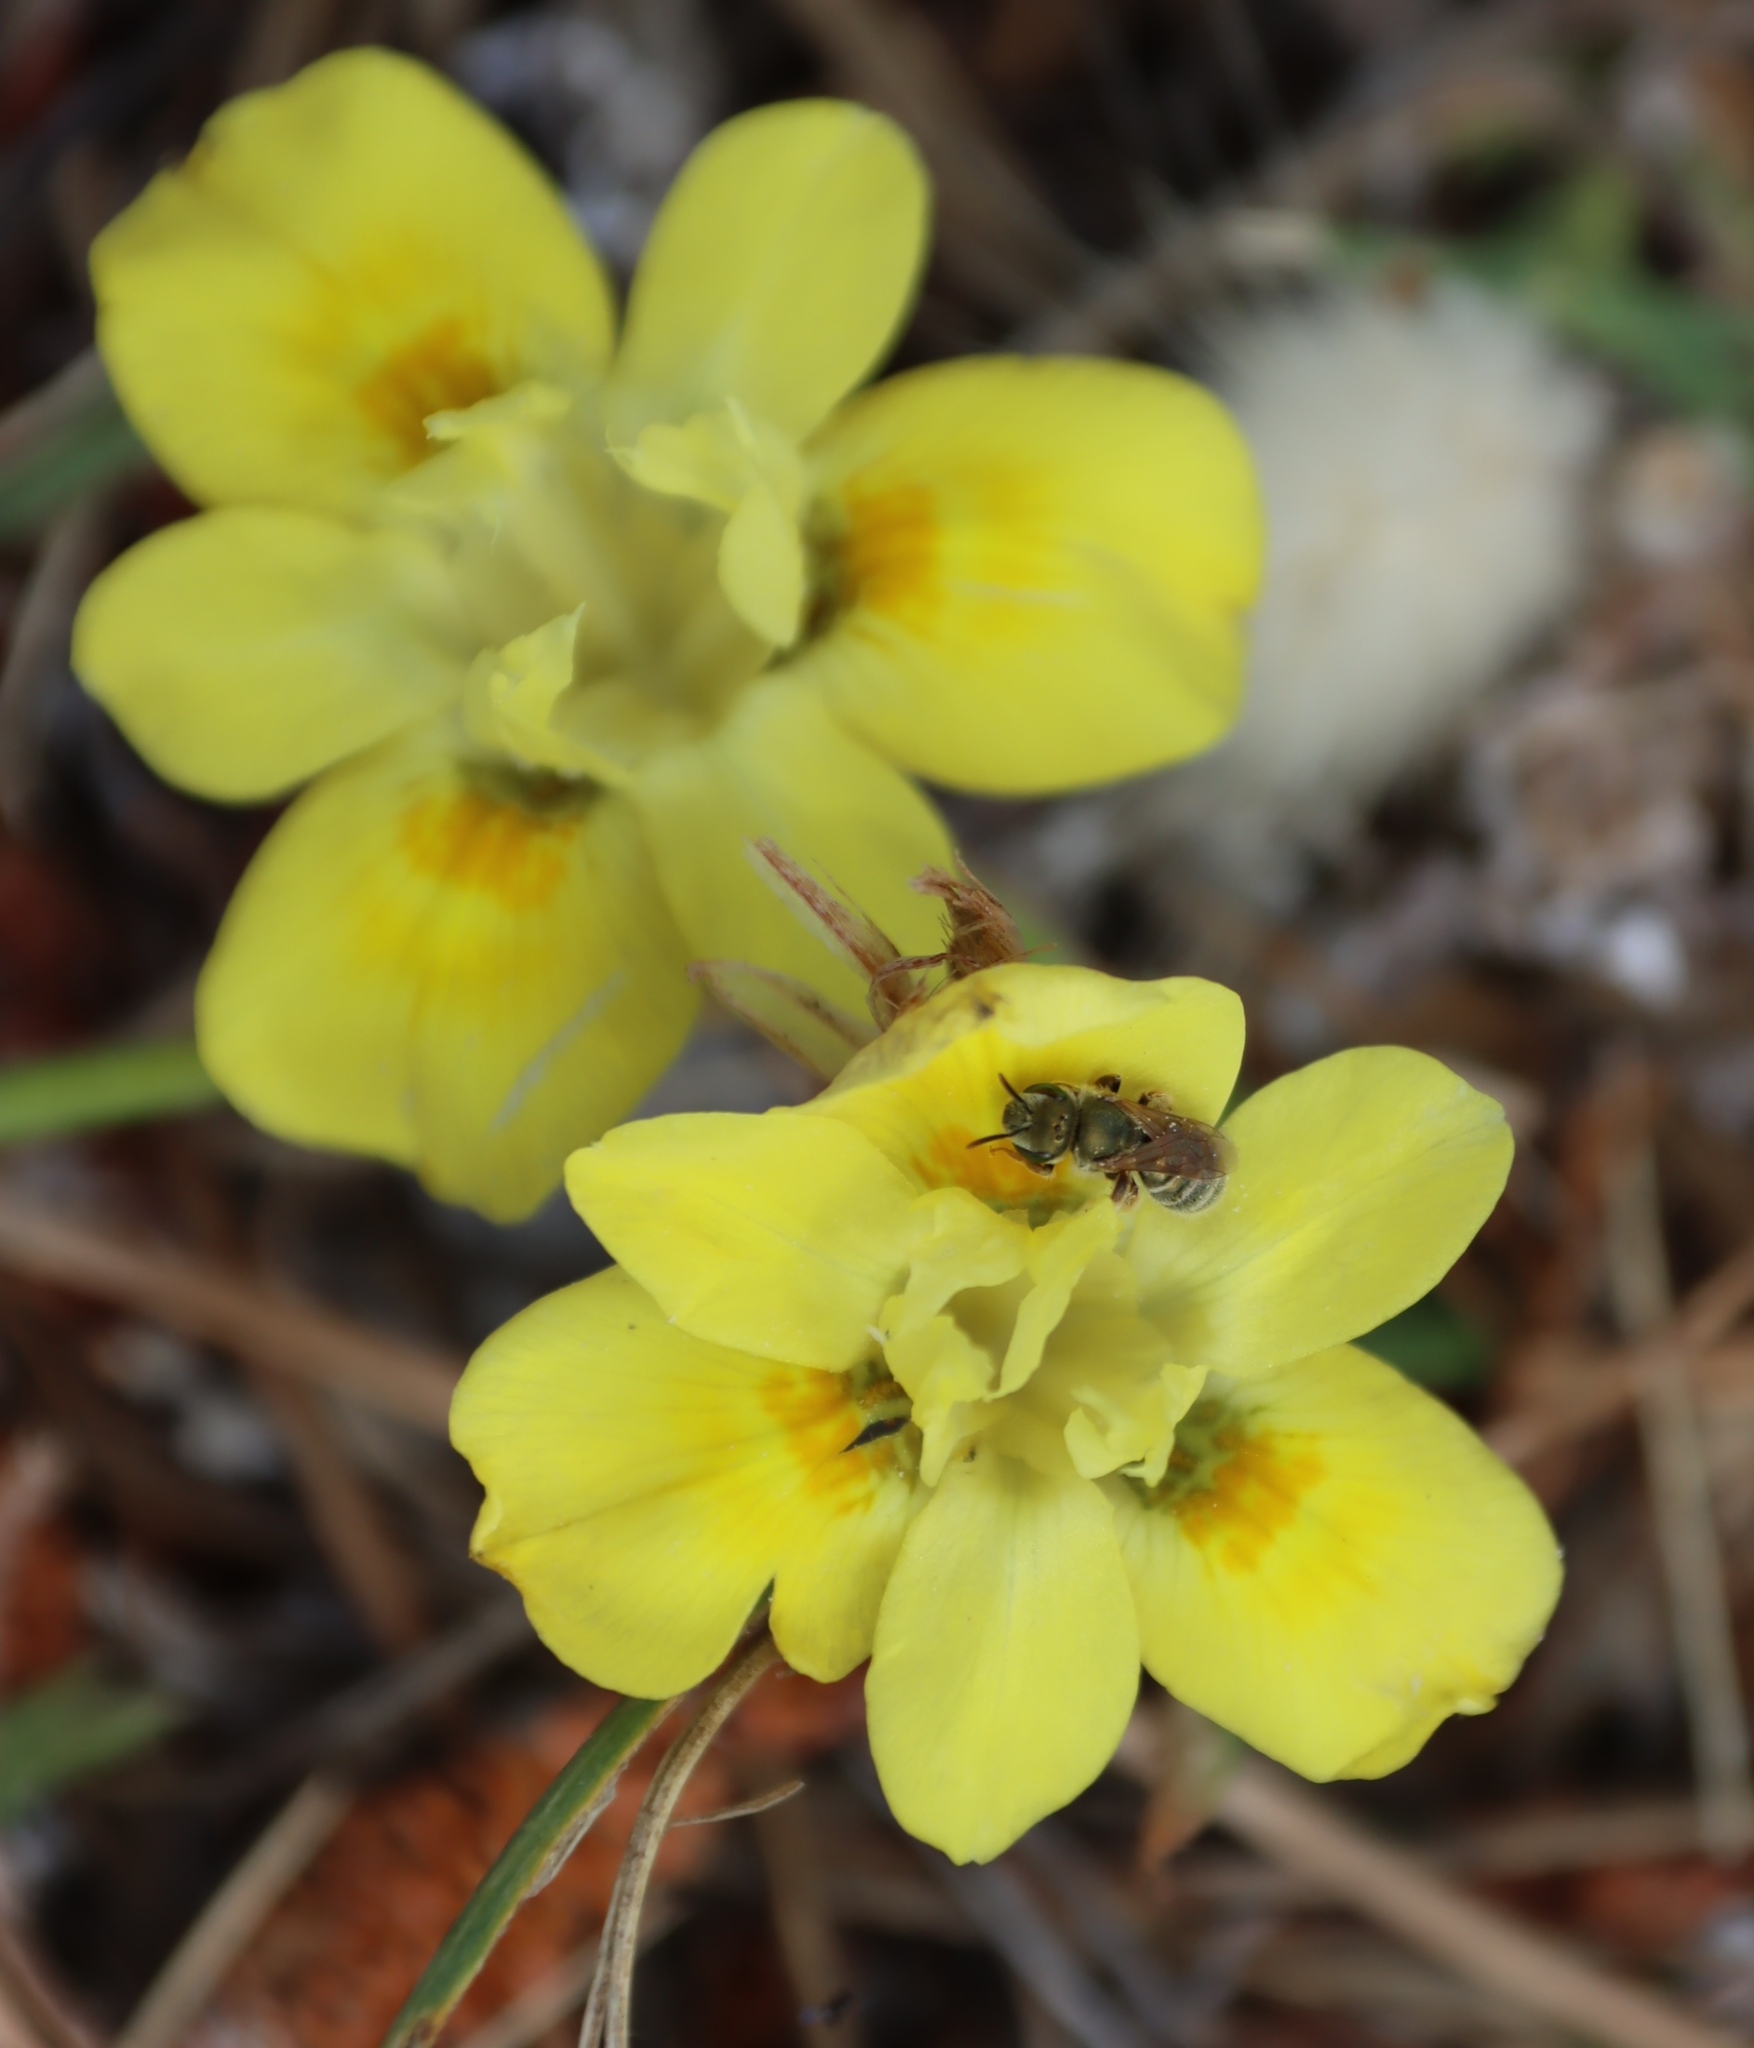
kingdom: Plantae
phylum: Tracheophyta
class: Liliopsida
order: Asparagales
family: Iridaceae
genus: Moraea
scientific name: Moraea fugax
